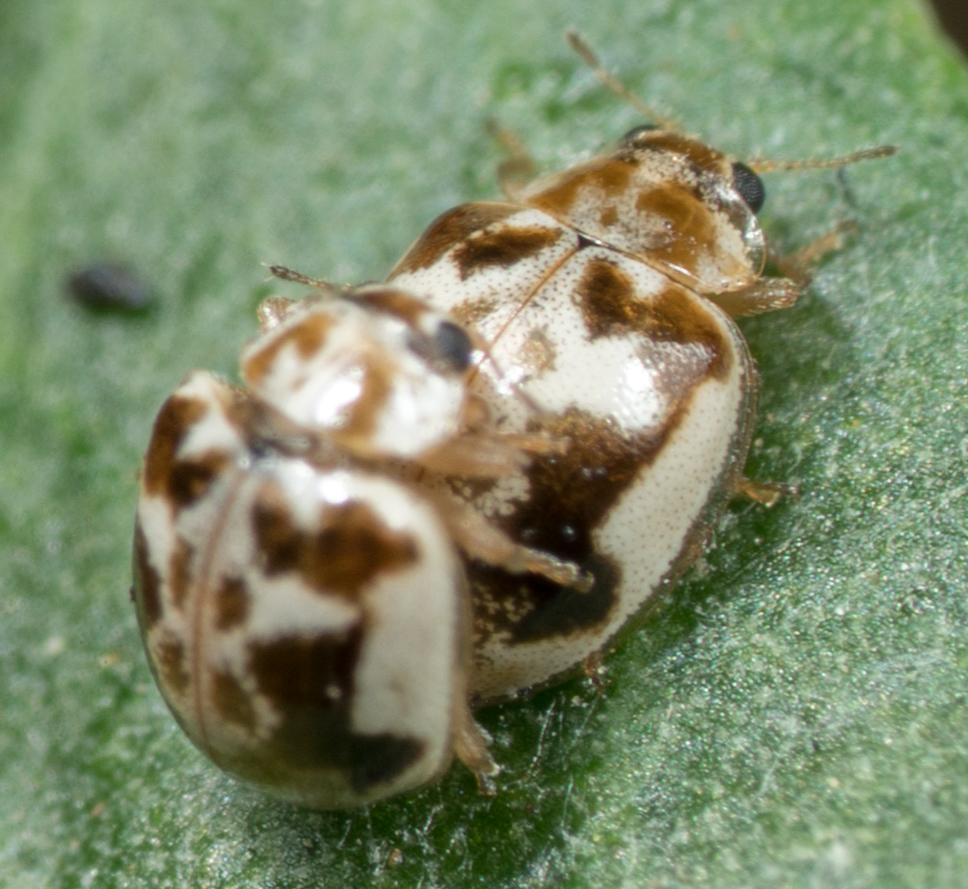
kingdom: Animalia
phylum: Arthropoda
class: Insecta
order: Coleoptera
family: Coccinellidae
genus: Psyllobora
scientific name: Psyllobora renifer
